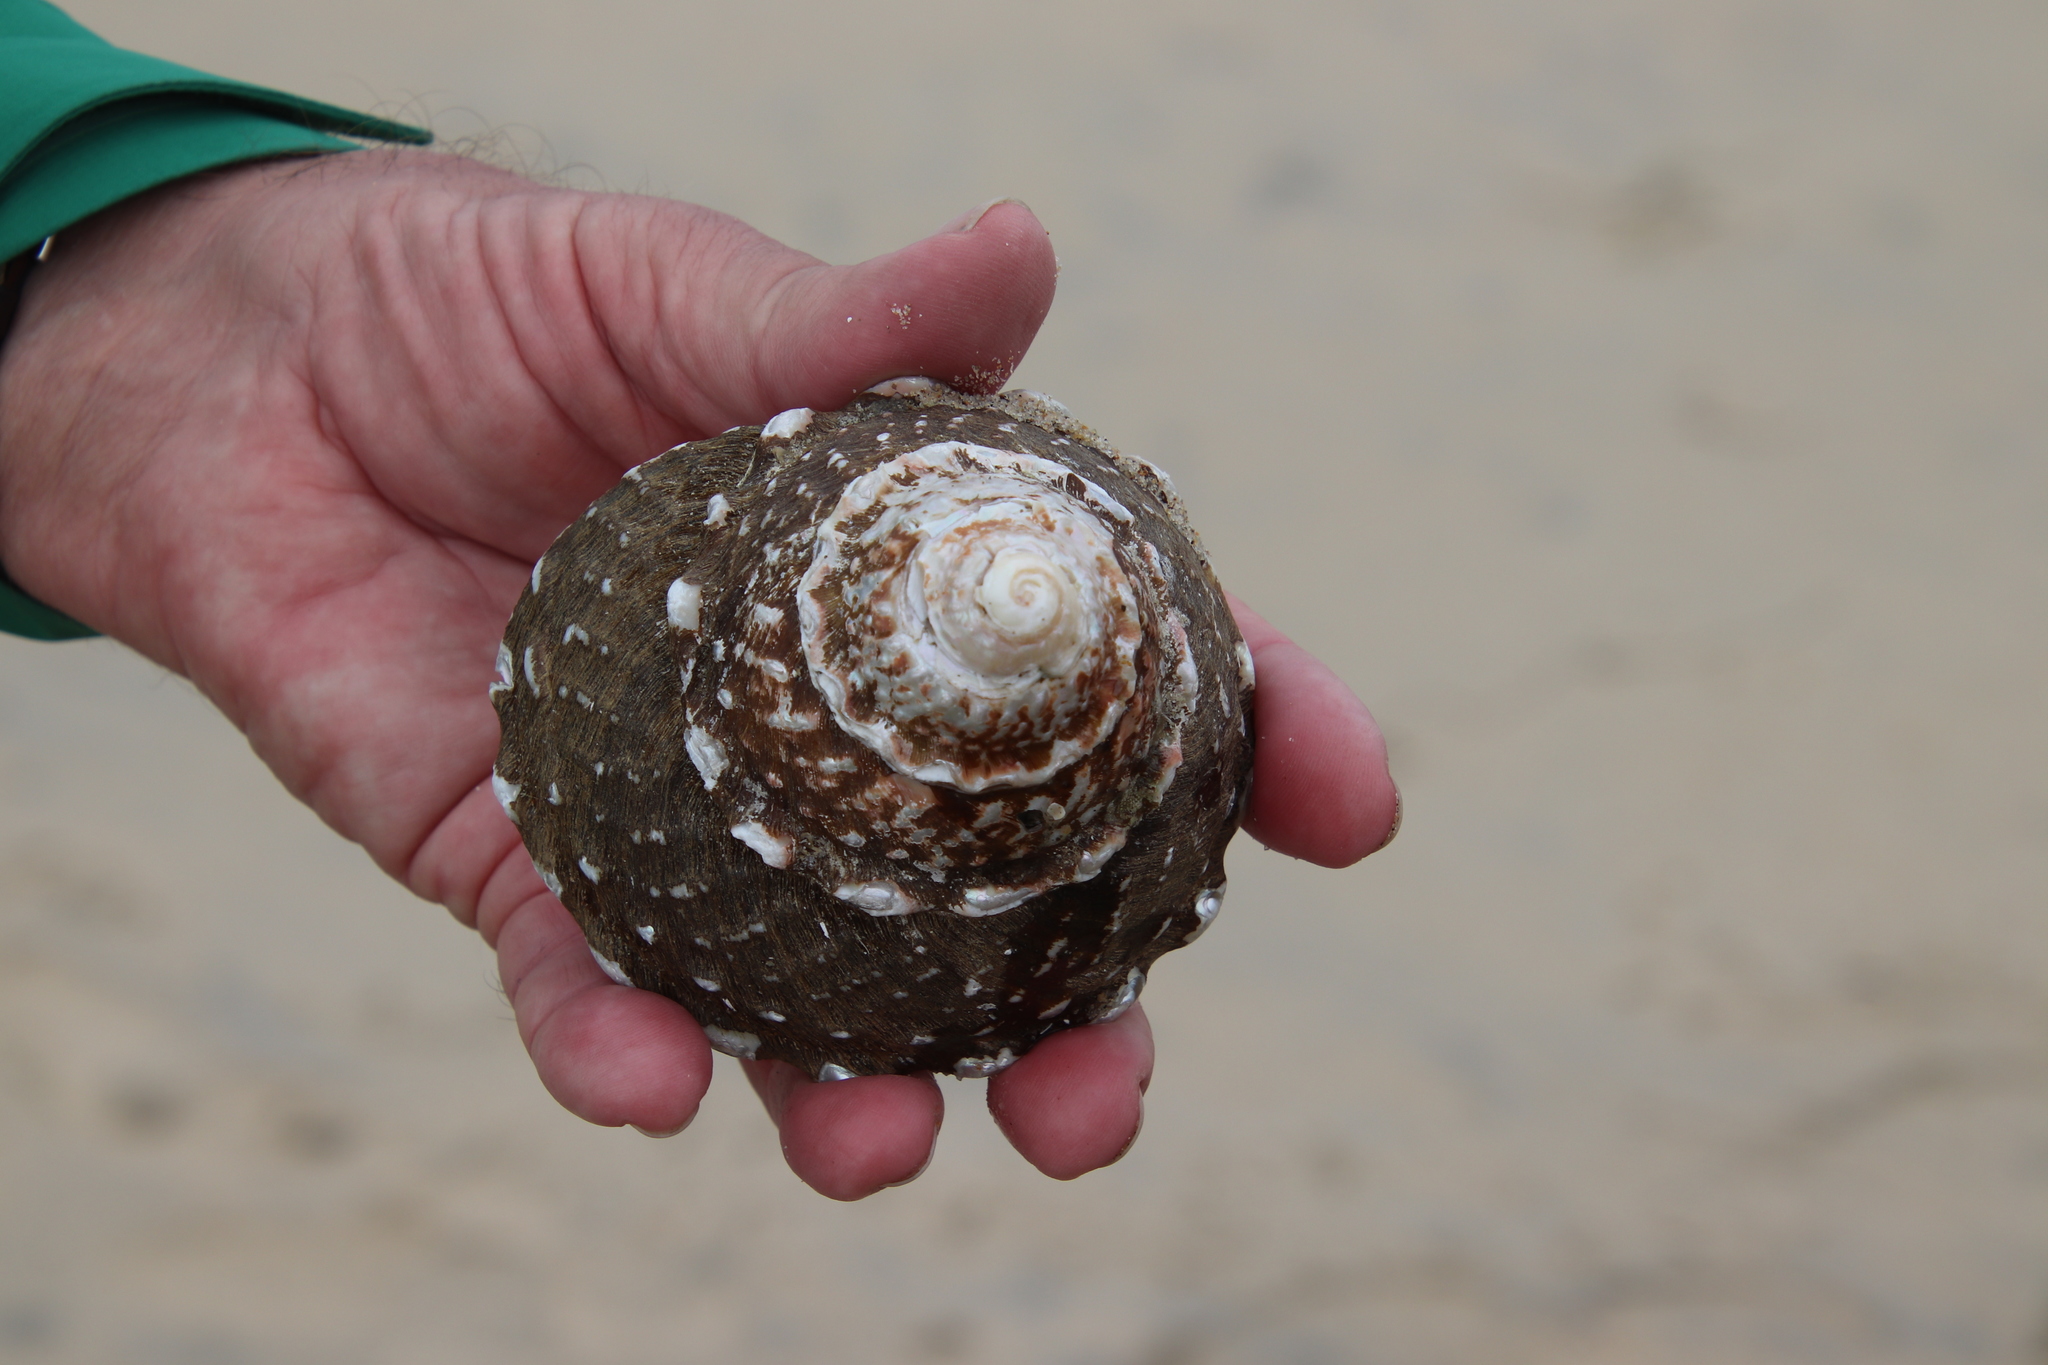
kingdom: Animalia
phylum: Mollusca
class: Gastropoda
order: Trochida
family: Turbinidae
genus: Megastraea
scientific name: Megastraea undosa
